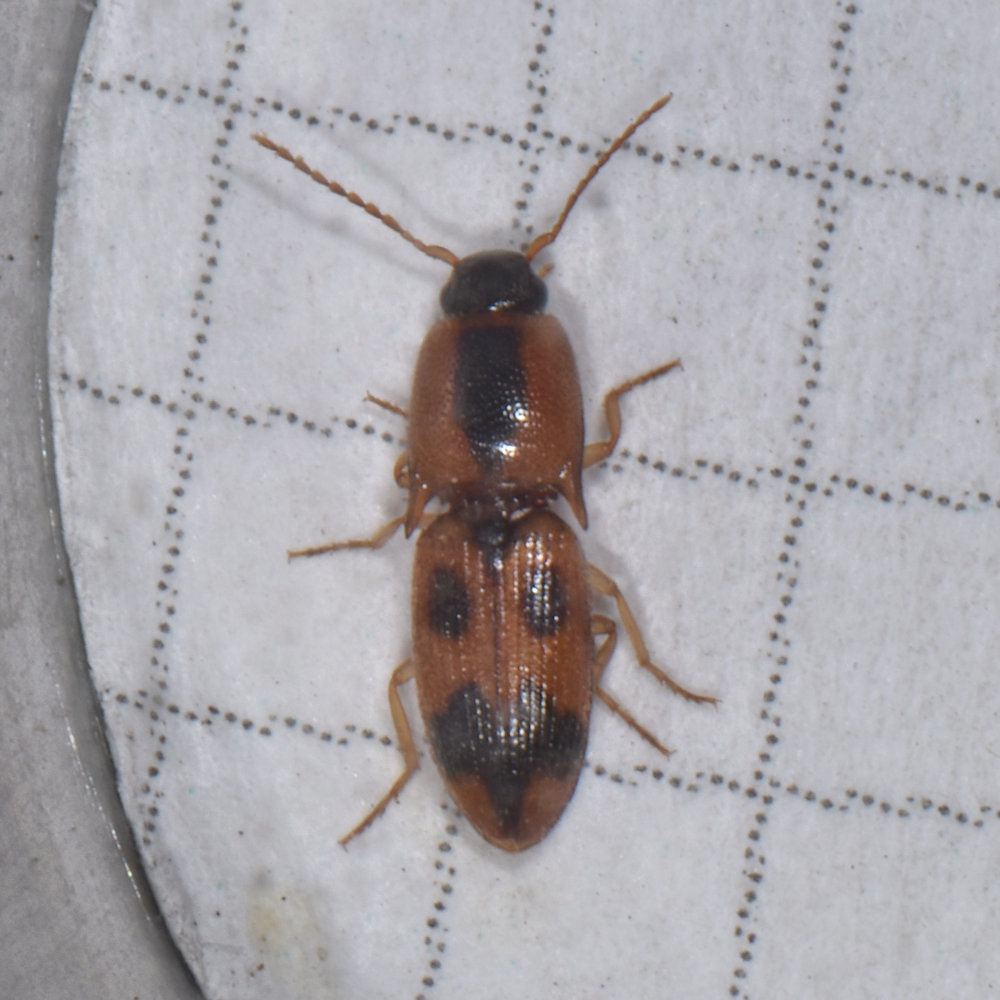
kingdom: Animalia
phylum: Arthropoda
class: Insecta
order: Coleoptera
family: Elateridae
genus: Aeolus
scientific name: Aeolus mellillus
